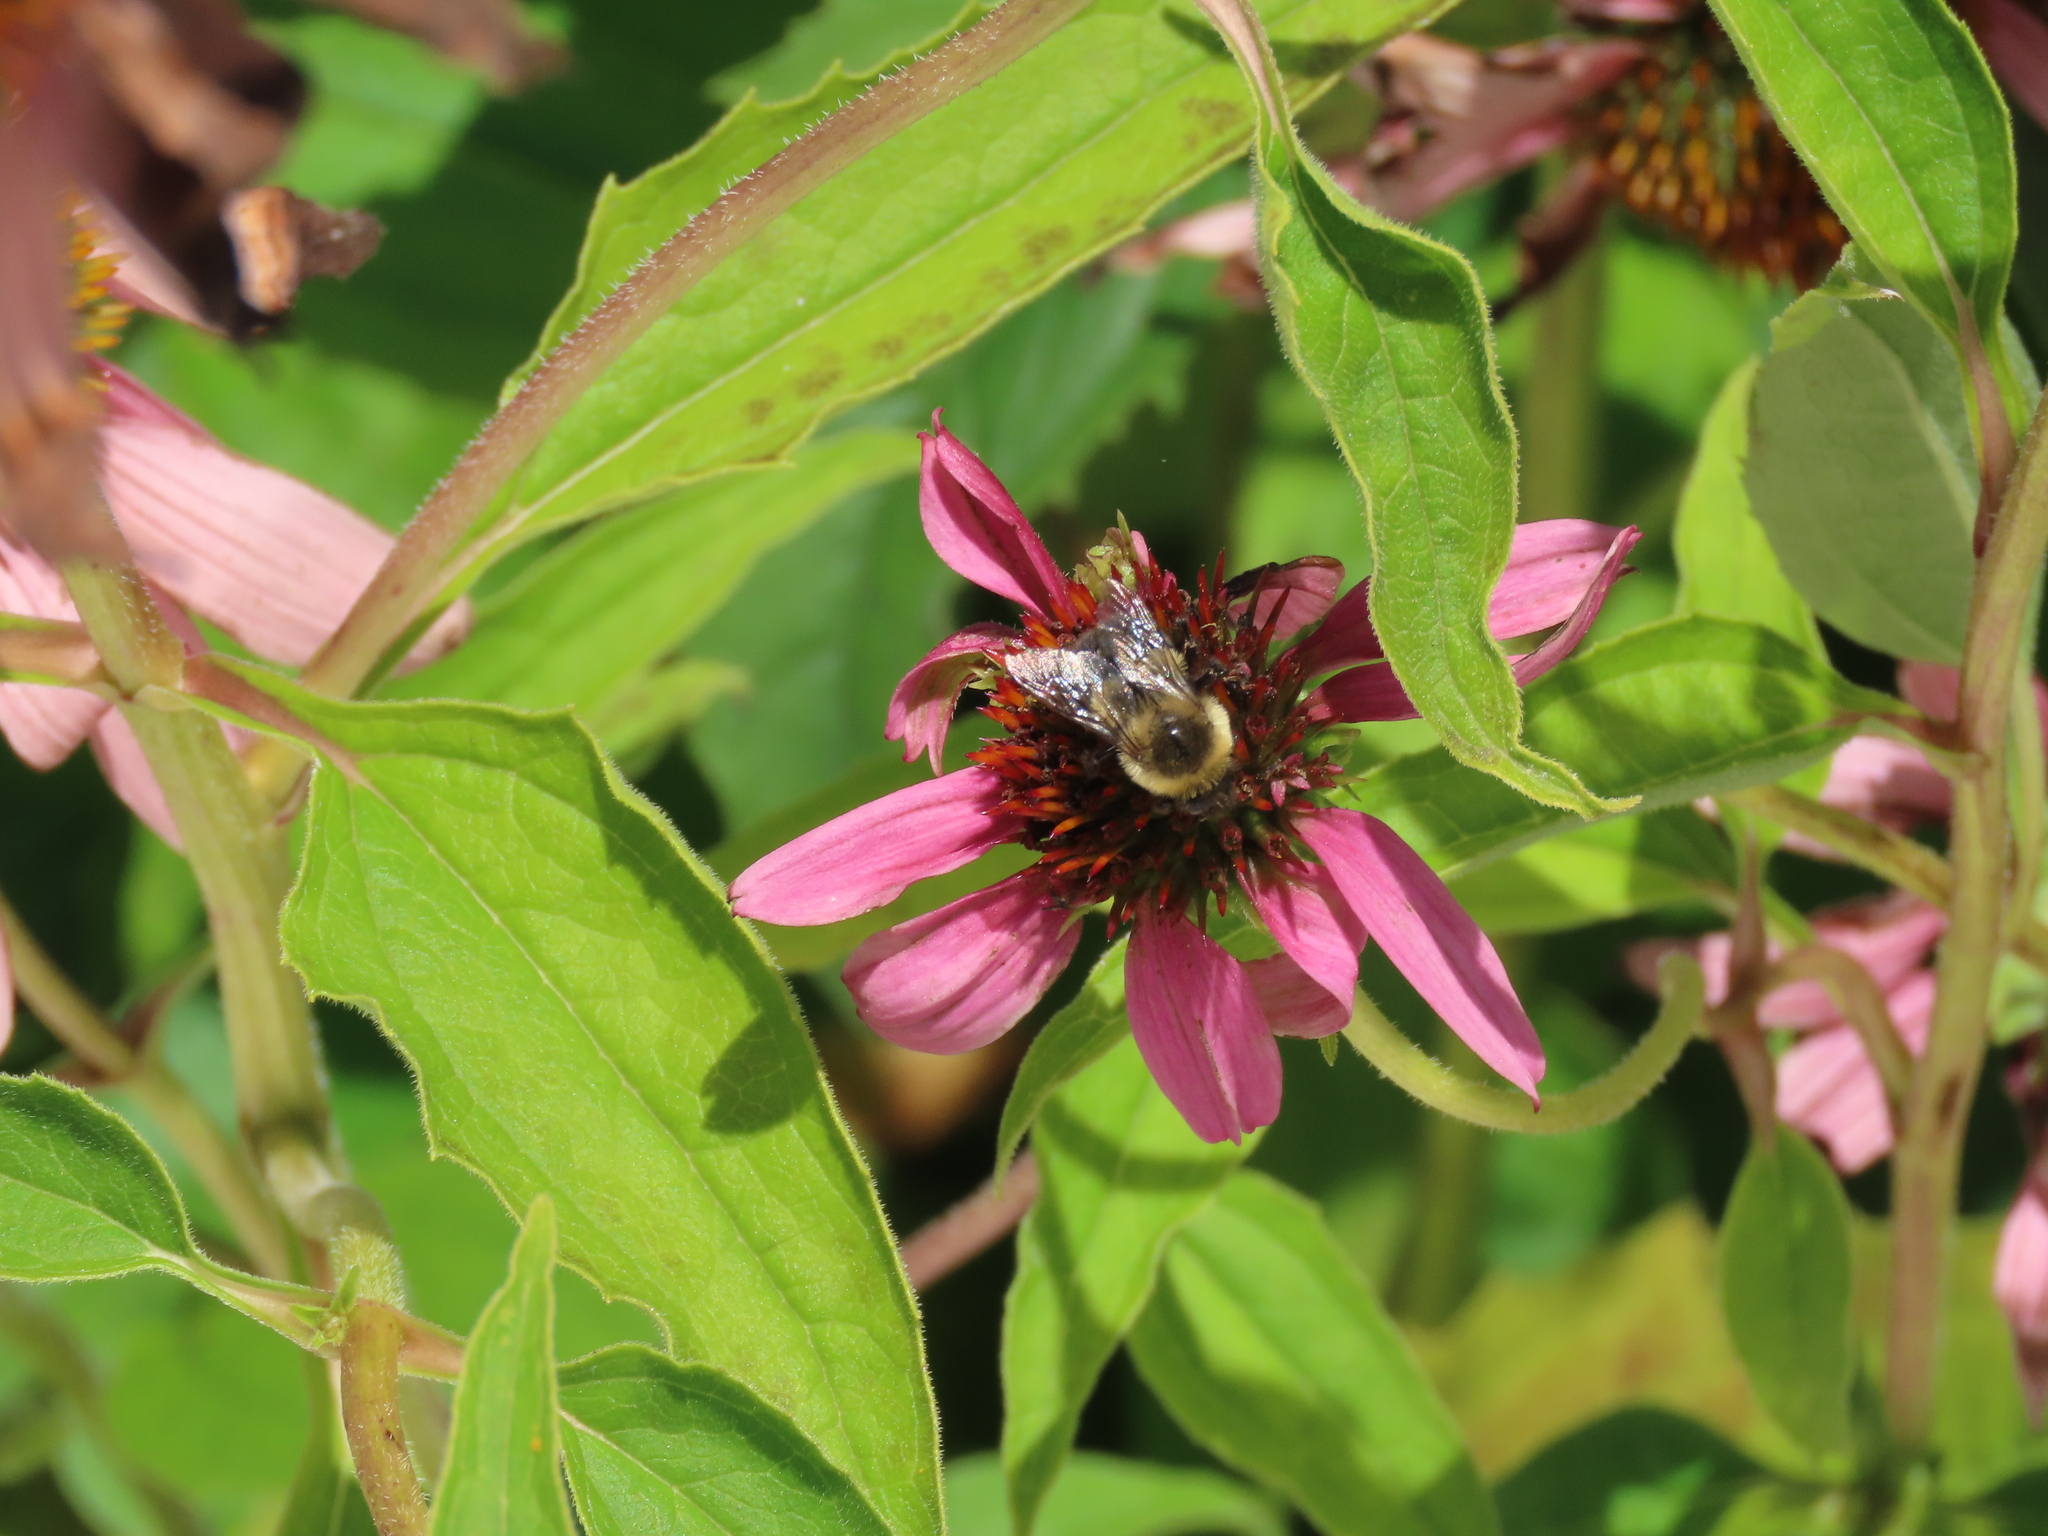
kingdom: Animalia
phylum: Arthropoda
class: Insecta
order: Hymenoptera
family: Apidae
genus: Bombus
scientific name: Bombus impatiens
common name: Common eastern bumble bee
